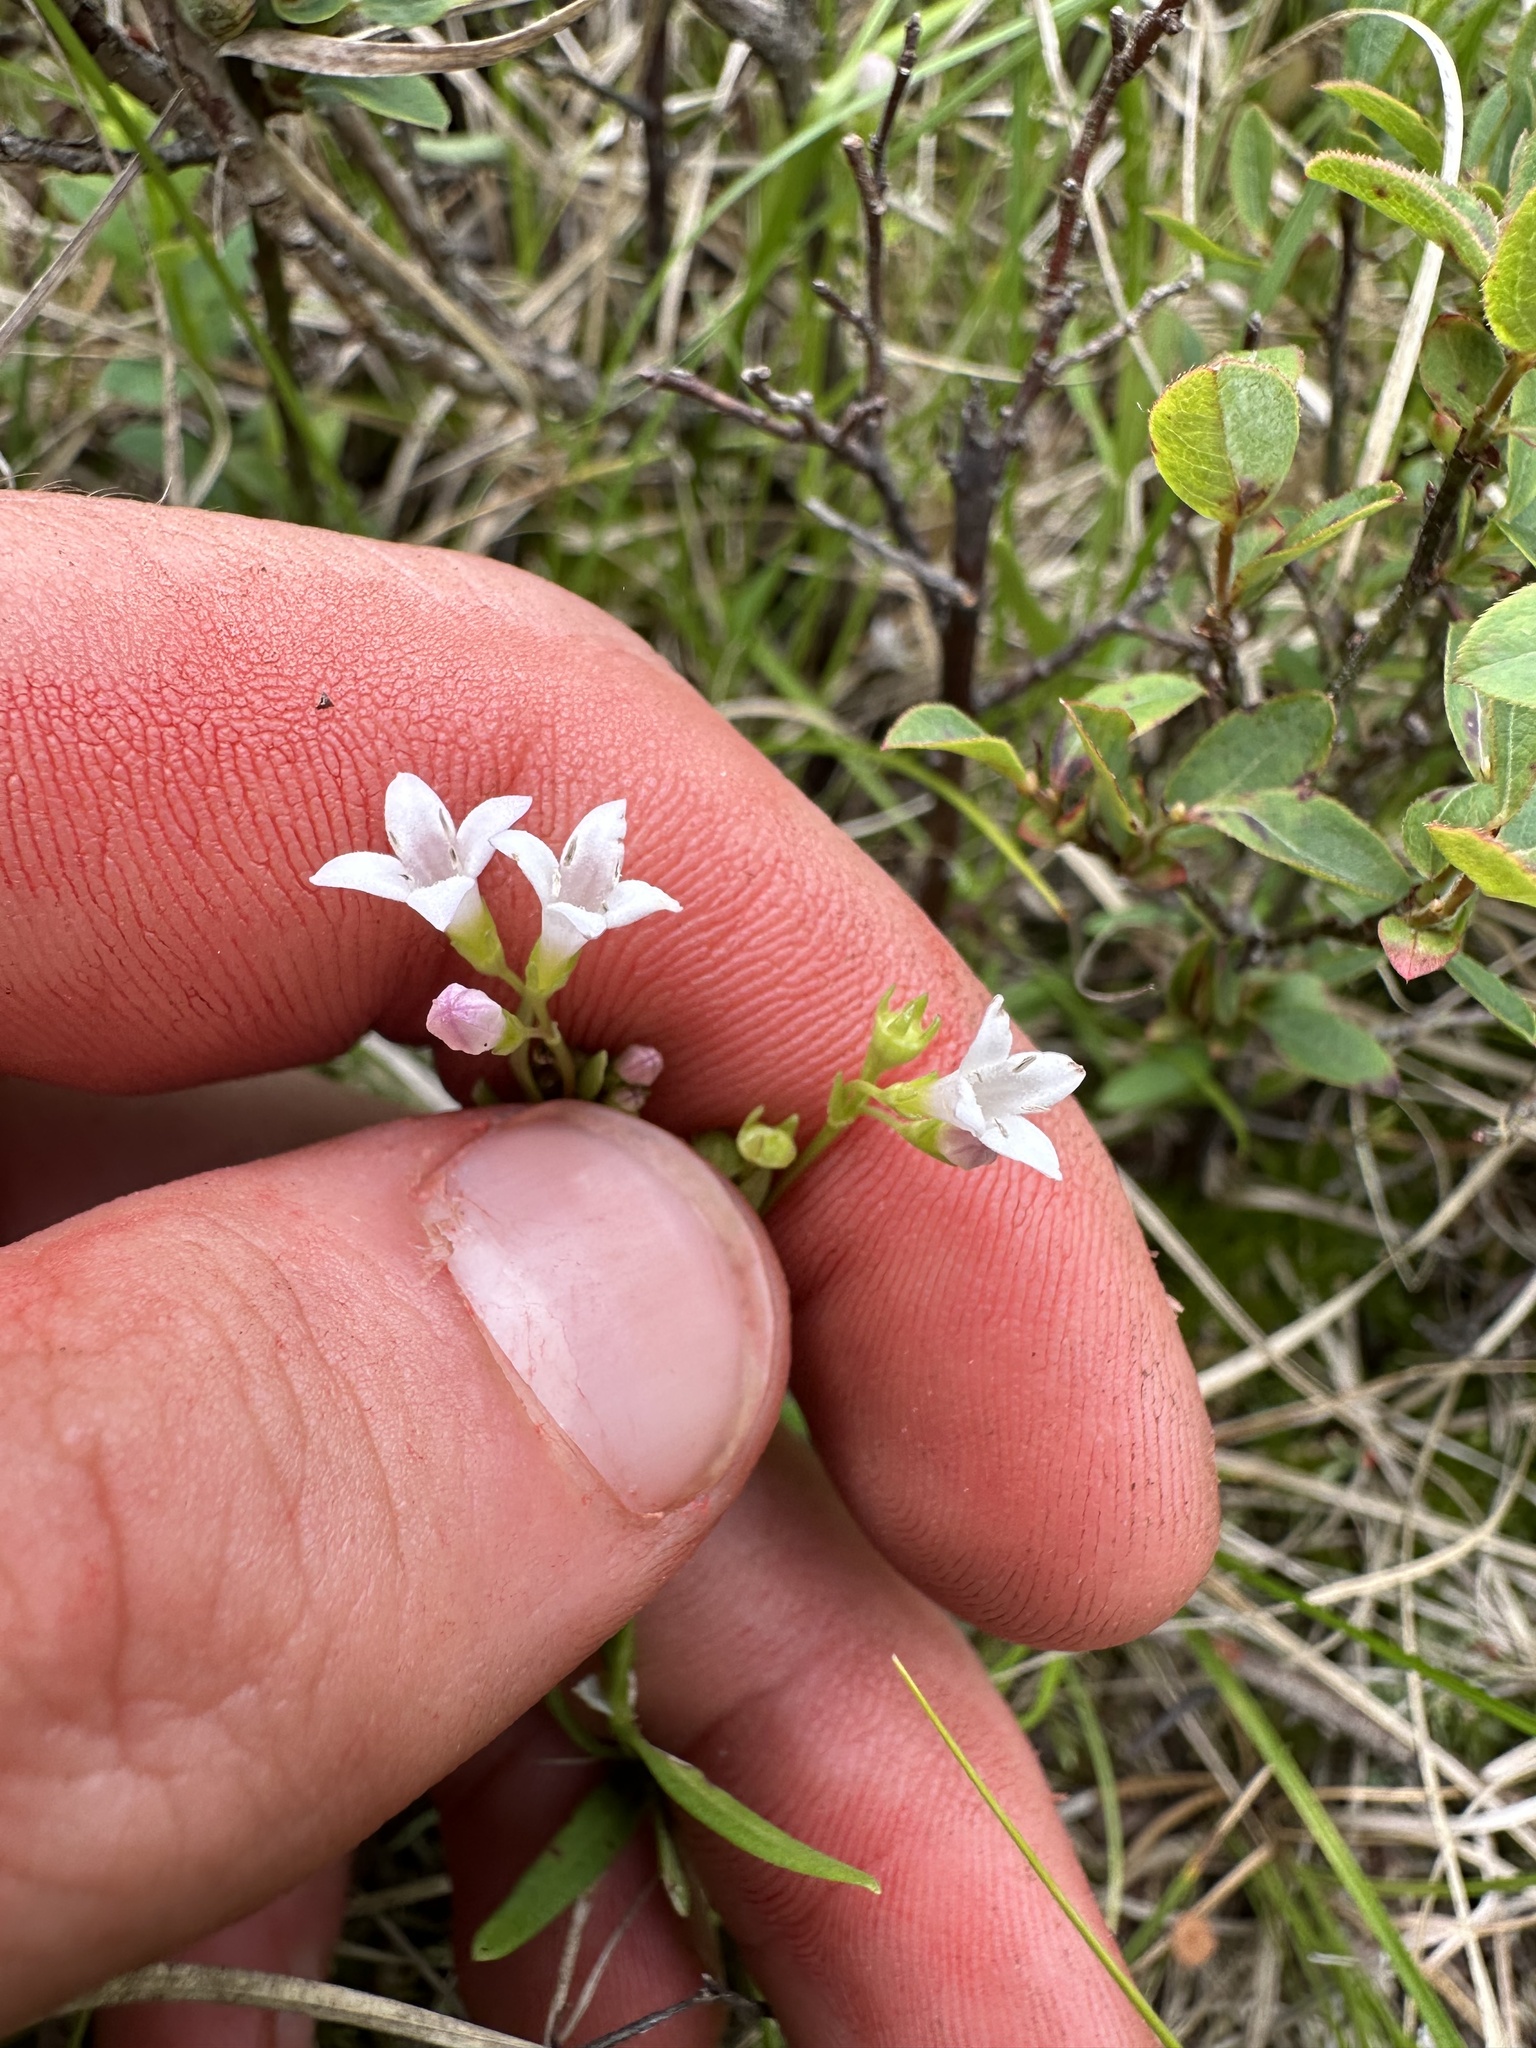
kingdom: Plantae
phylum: Tracheophyta
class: Magnoliopsida
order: Gentianales
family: Rubiaceae
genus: Houstonia
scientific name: Houstonia longifolia
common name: Long-leaved bluets
